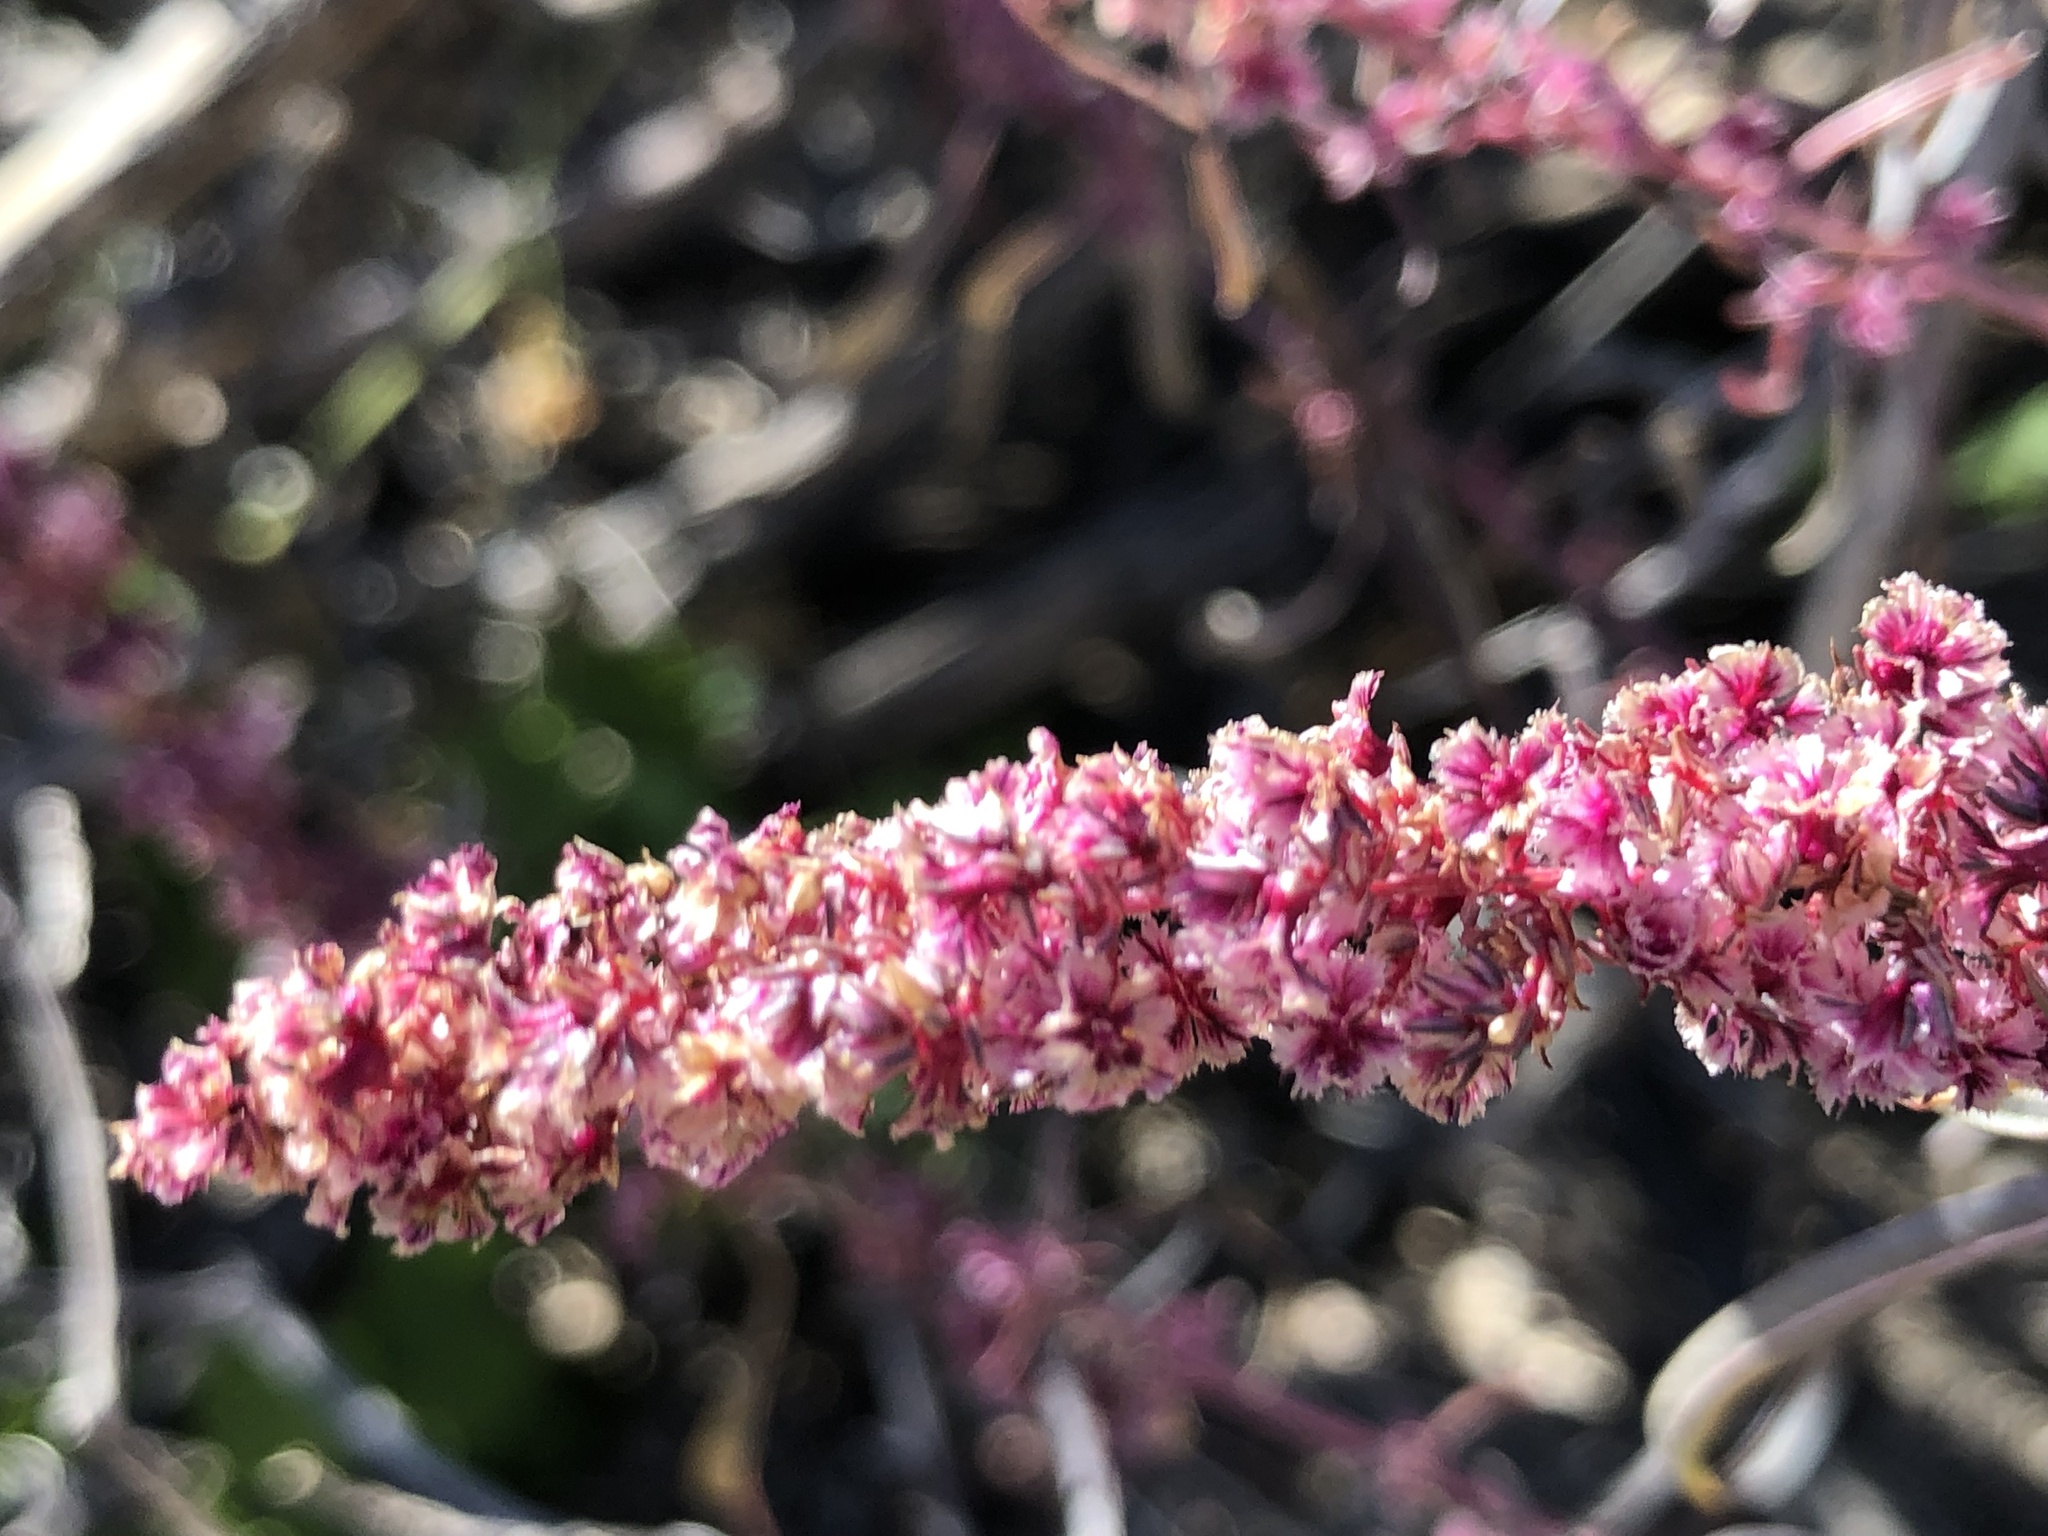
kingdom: Plantae
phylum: Tracheophyta
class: Magnoliopsida
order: Caryophyllales
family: Amaranthaceae
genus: Amaranthus
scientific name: Amaranthus fimbriatus
